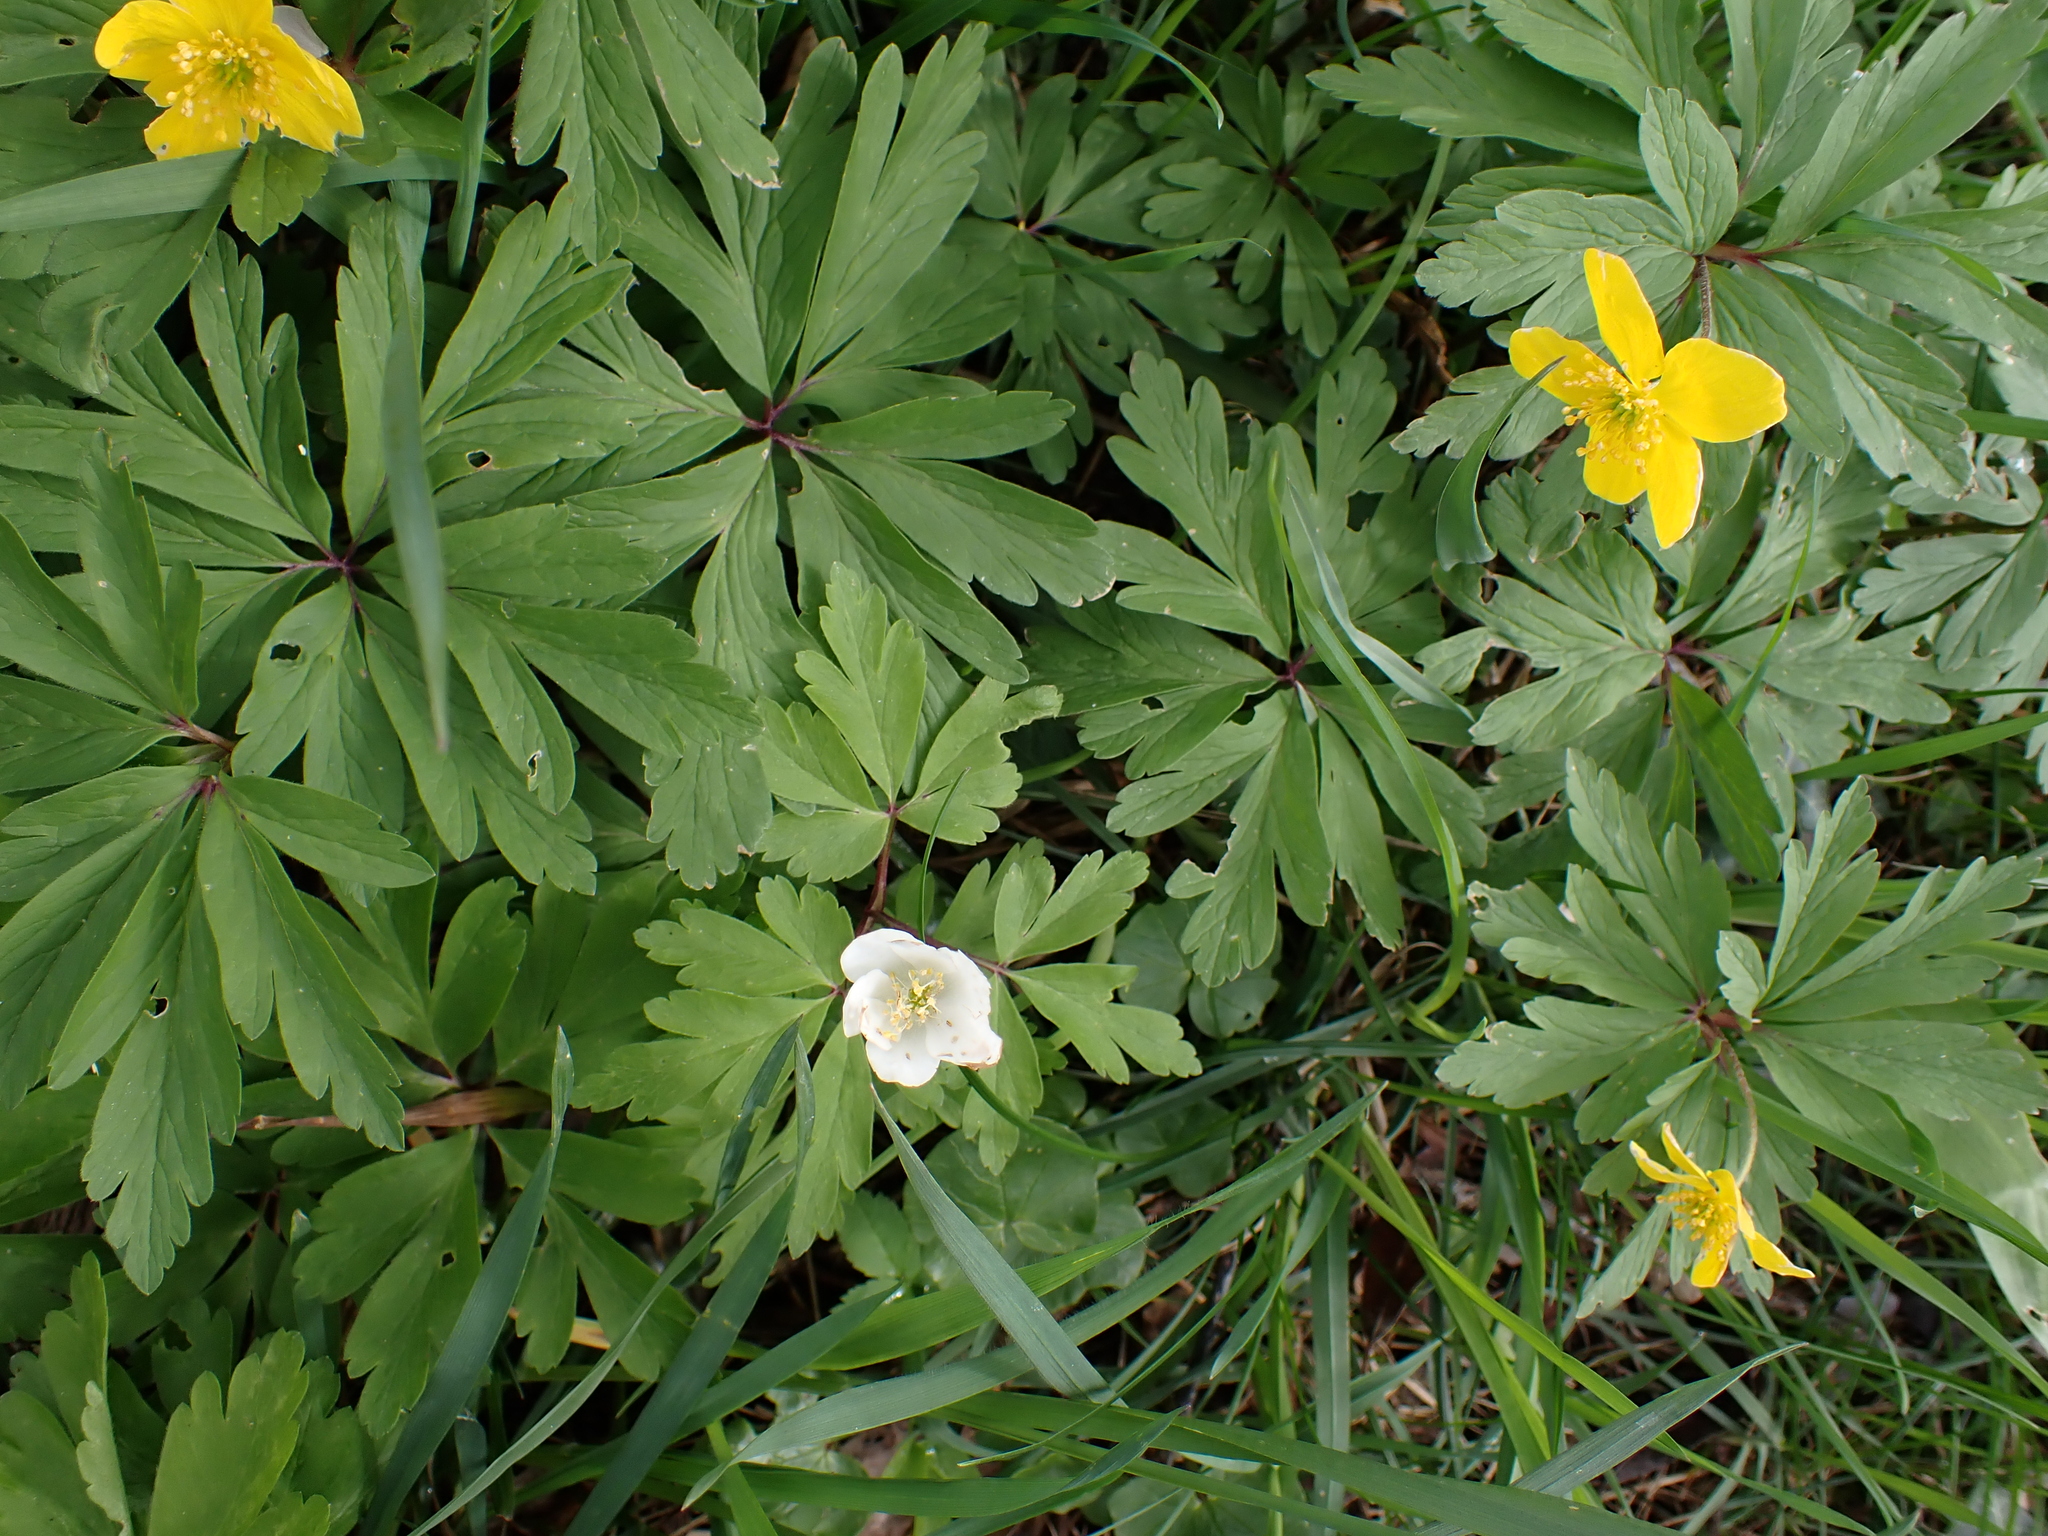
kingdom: Plantae
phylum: Tracheophyta
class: Magnoliopsida
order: Ranunculales
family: Ranunculaceae
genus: Anemone
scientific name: Anemone nemorosa
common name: Wood anemone
